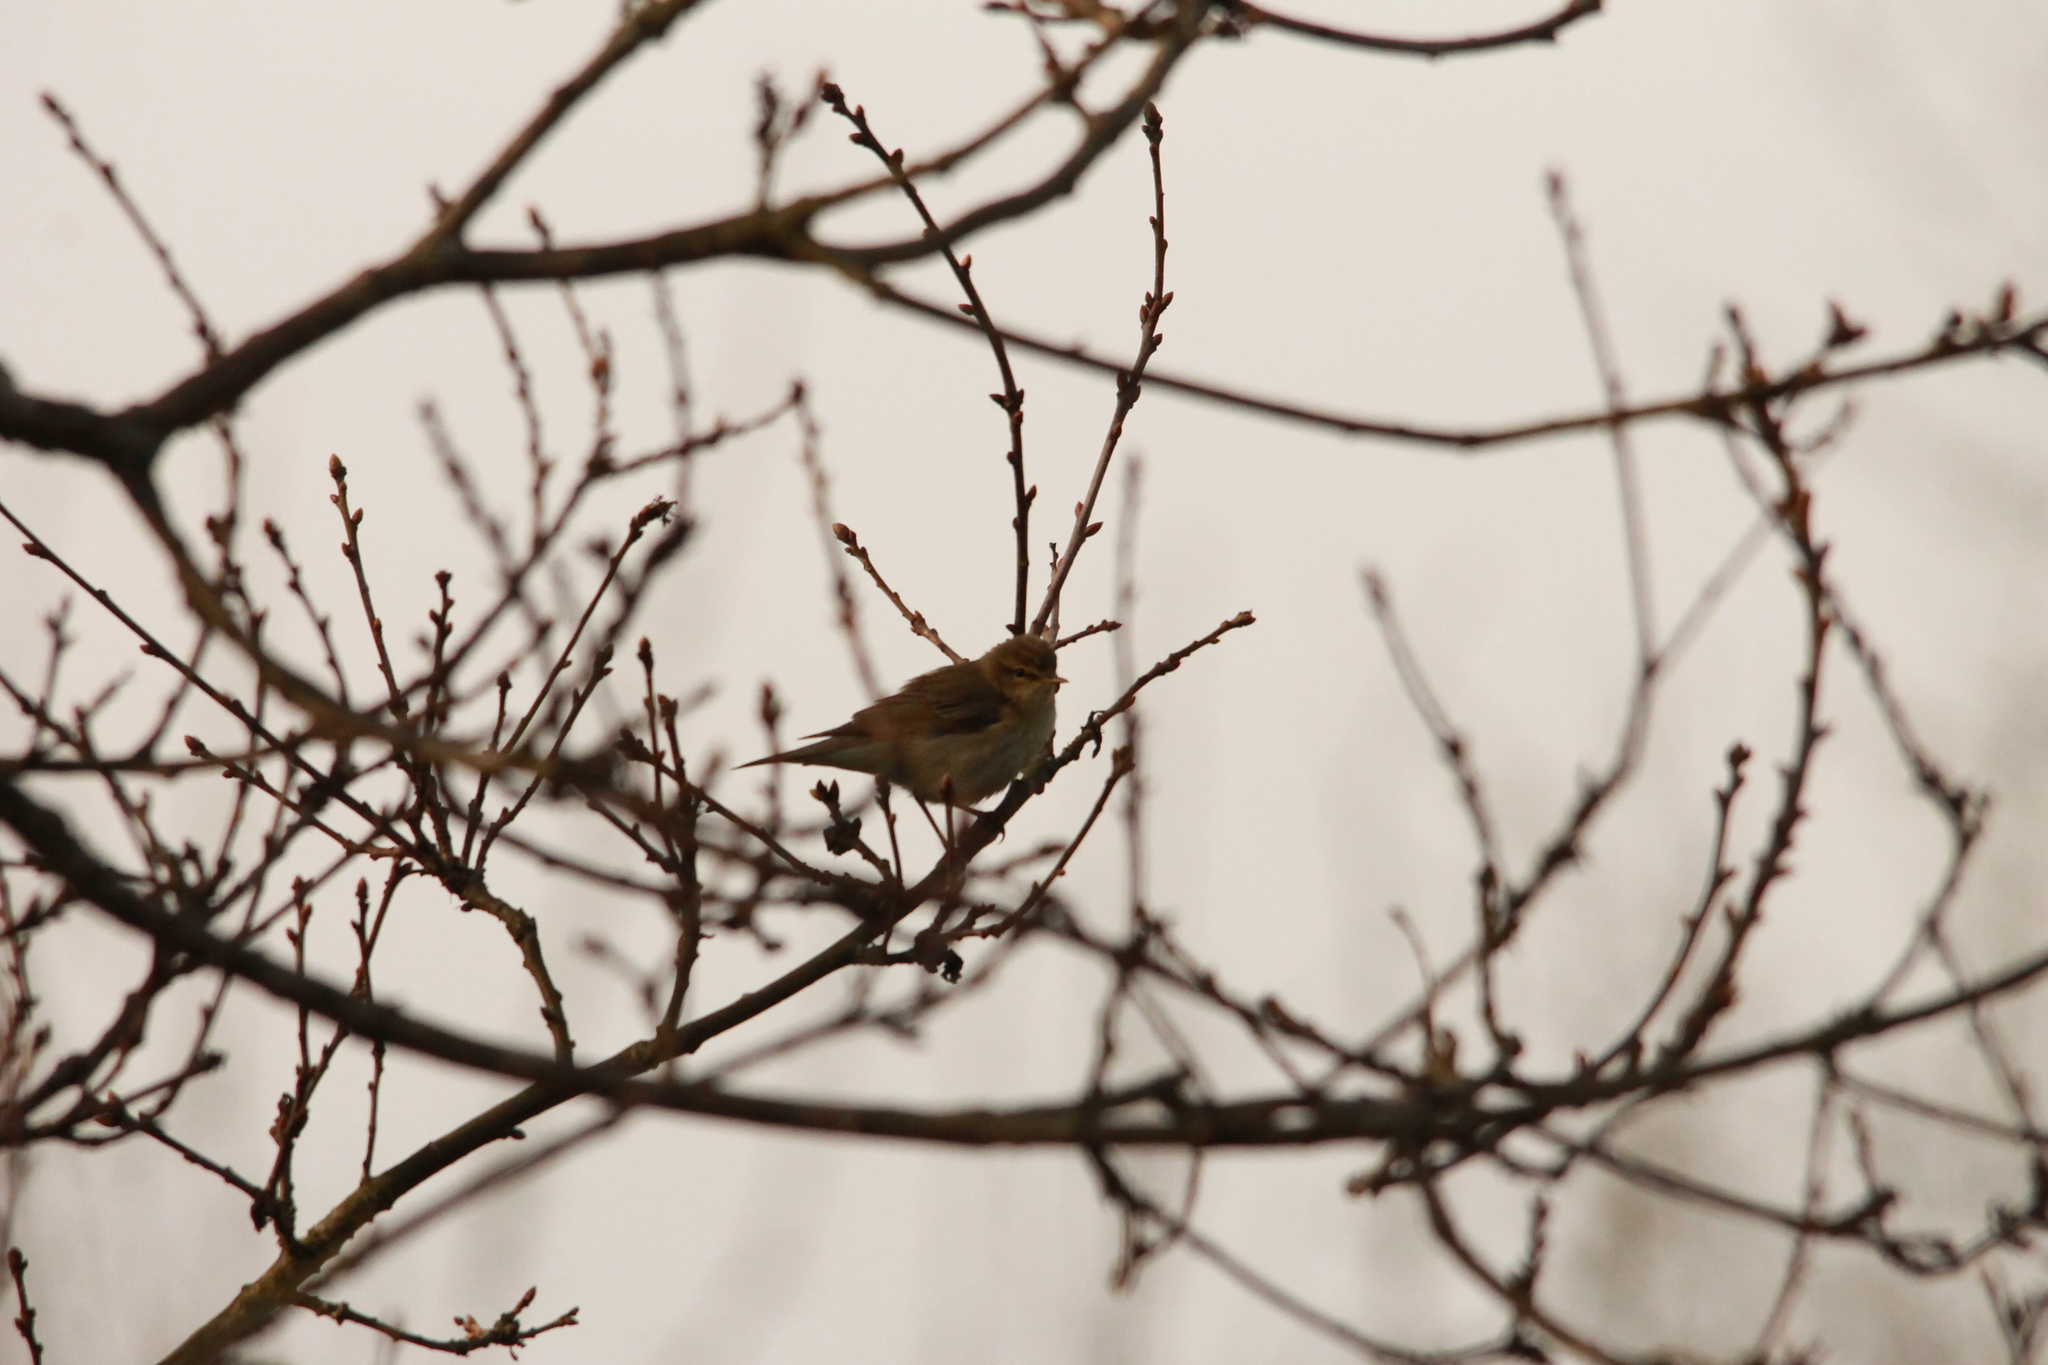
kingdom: Animalia
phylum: Chordata
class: Aves
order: Passeriformes
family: Phylloscopidae
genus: Phylloscopus
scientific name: Phylloscopus trochilus
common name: Willow warbler
